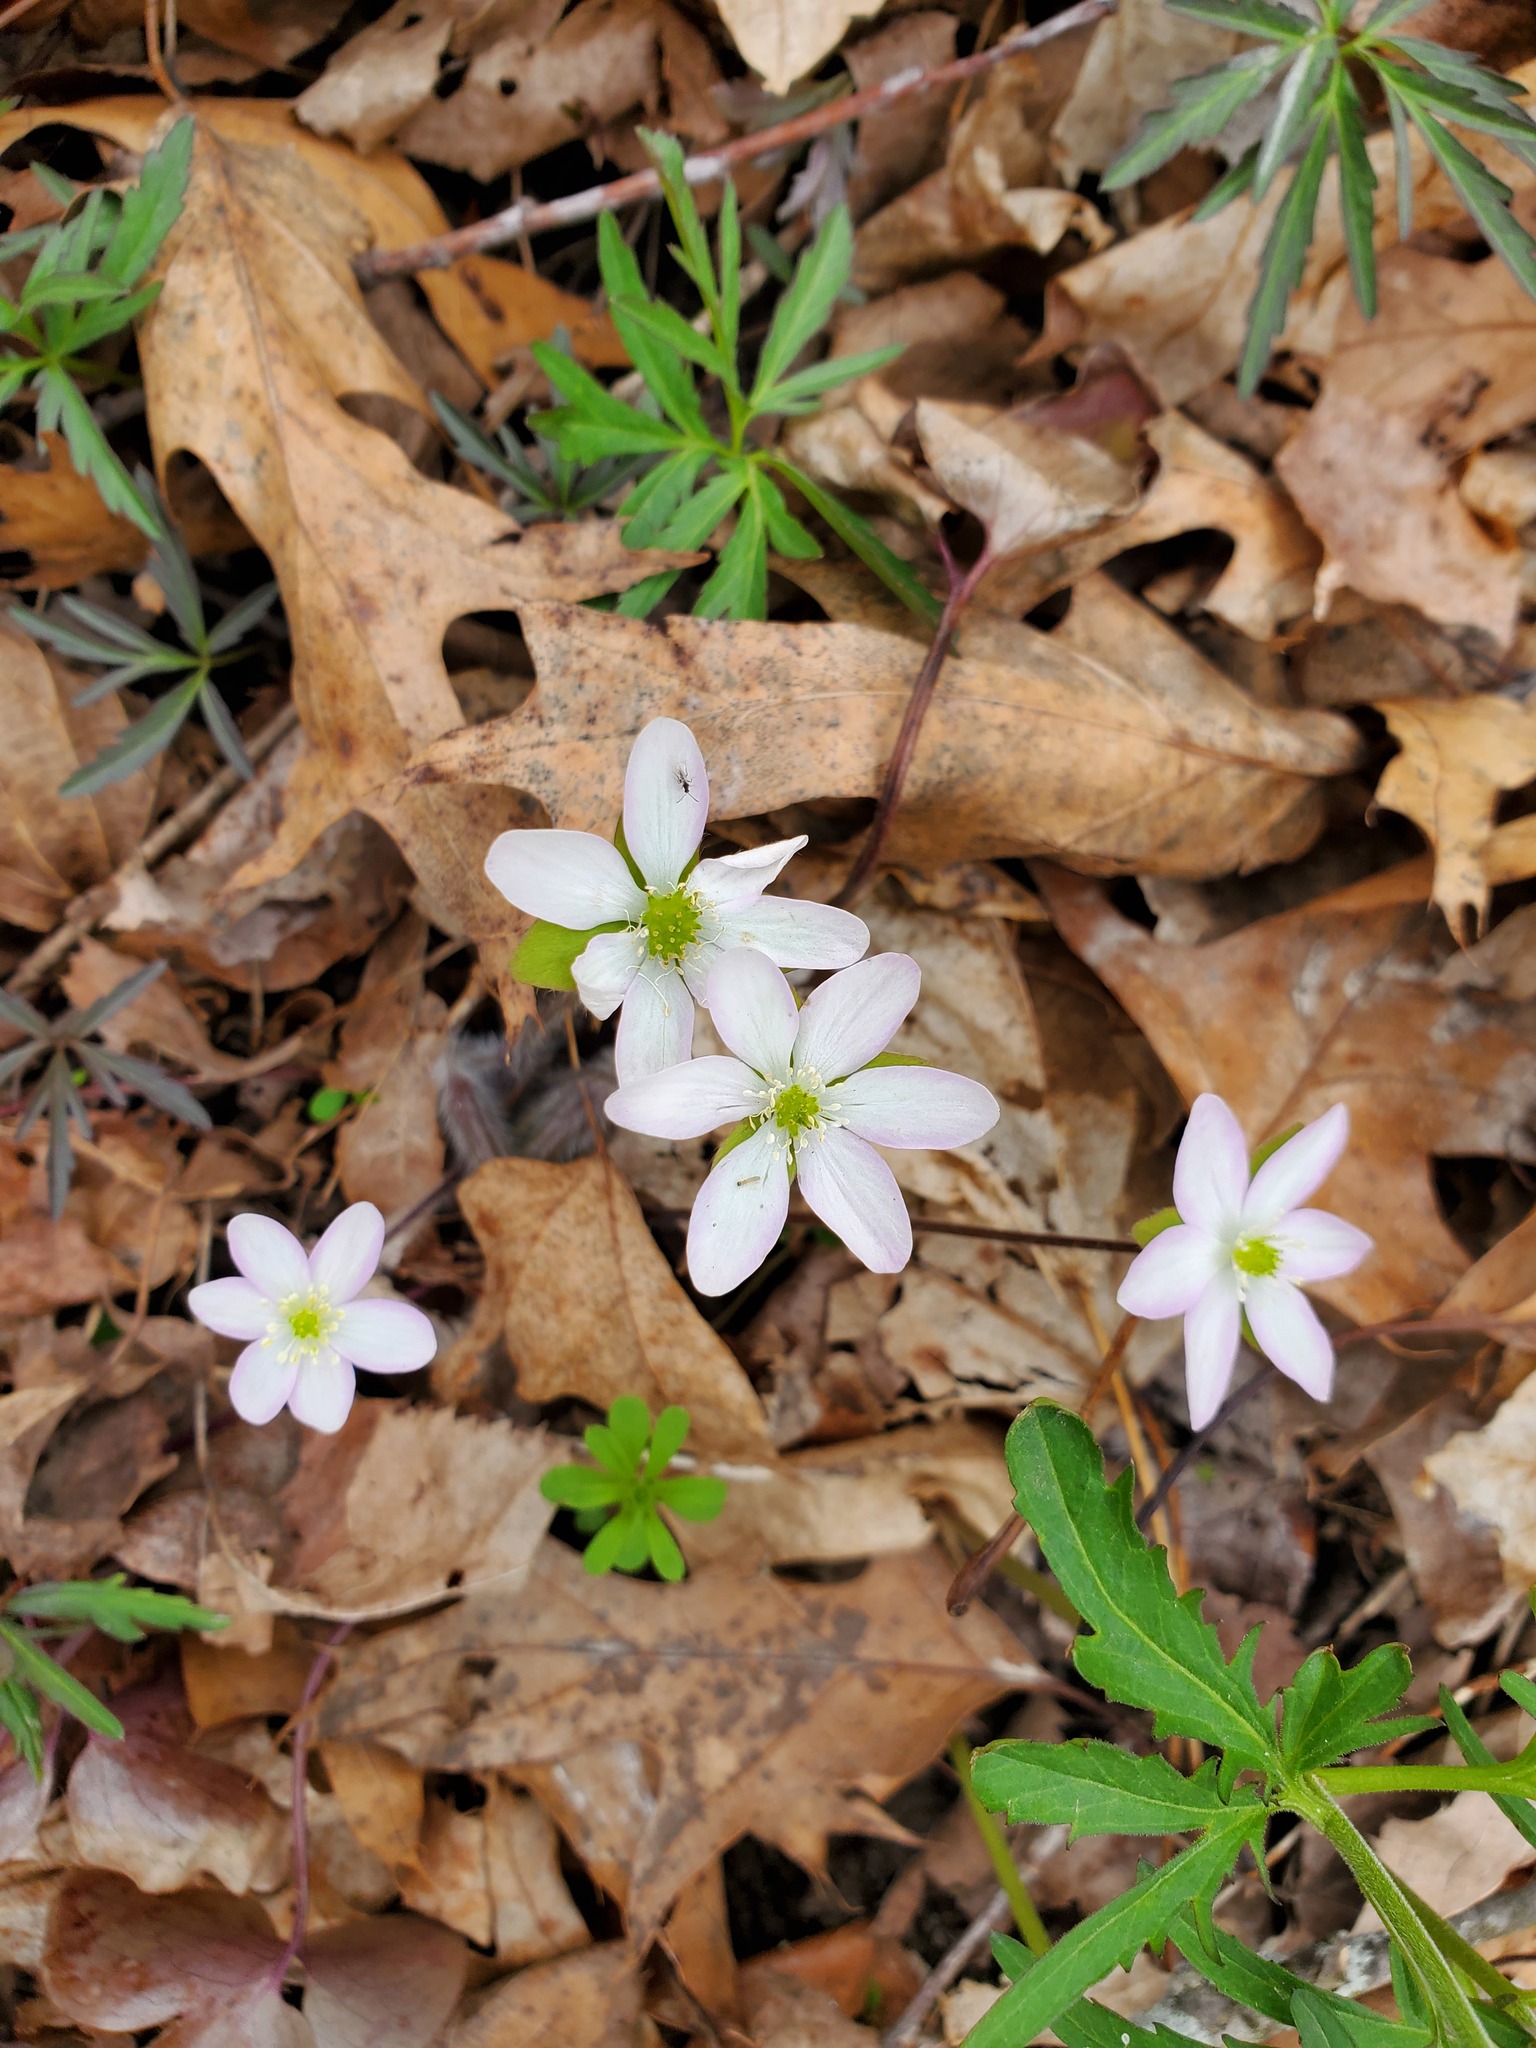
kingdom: Plantae
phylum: Tracheophyta
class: Magnoliopsida
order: Ranunculales
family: Ranunculaceae
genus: Hepatica
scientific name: Hepatica acutiloba
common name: Sharp-lobed hepatica
